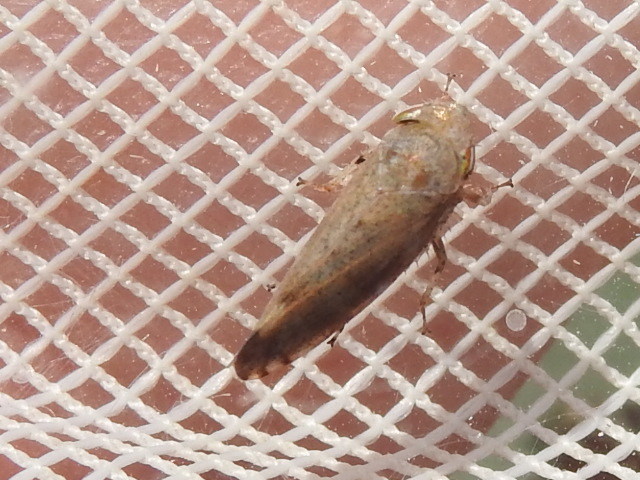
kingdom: Animalia
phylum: Arthropoda
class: Insecta
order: Hemiptera
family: Cicadellidae
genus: Fieberiella
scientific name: Fieberiella florii
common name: Flor’s leafhopper
